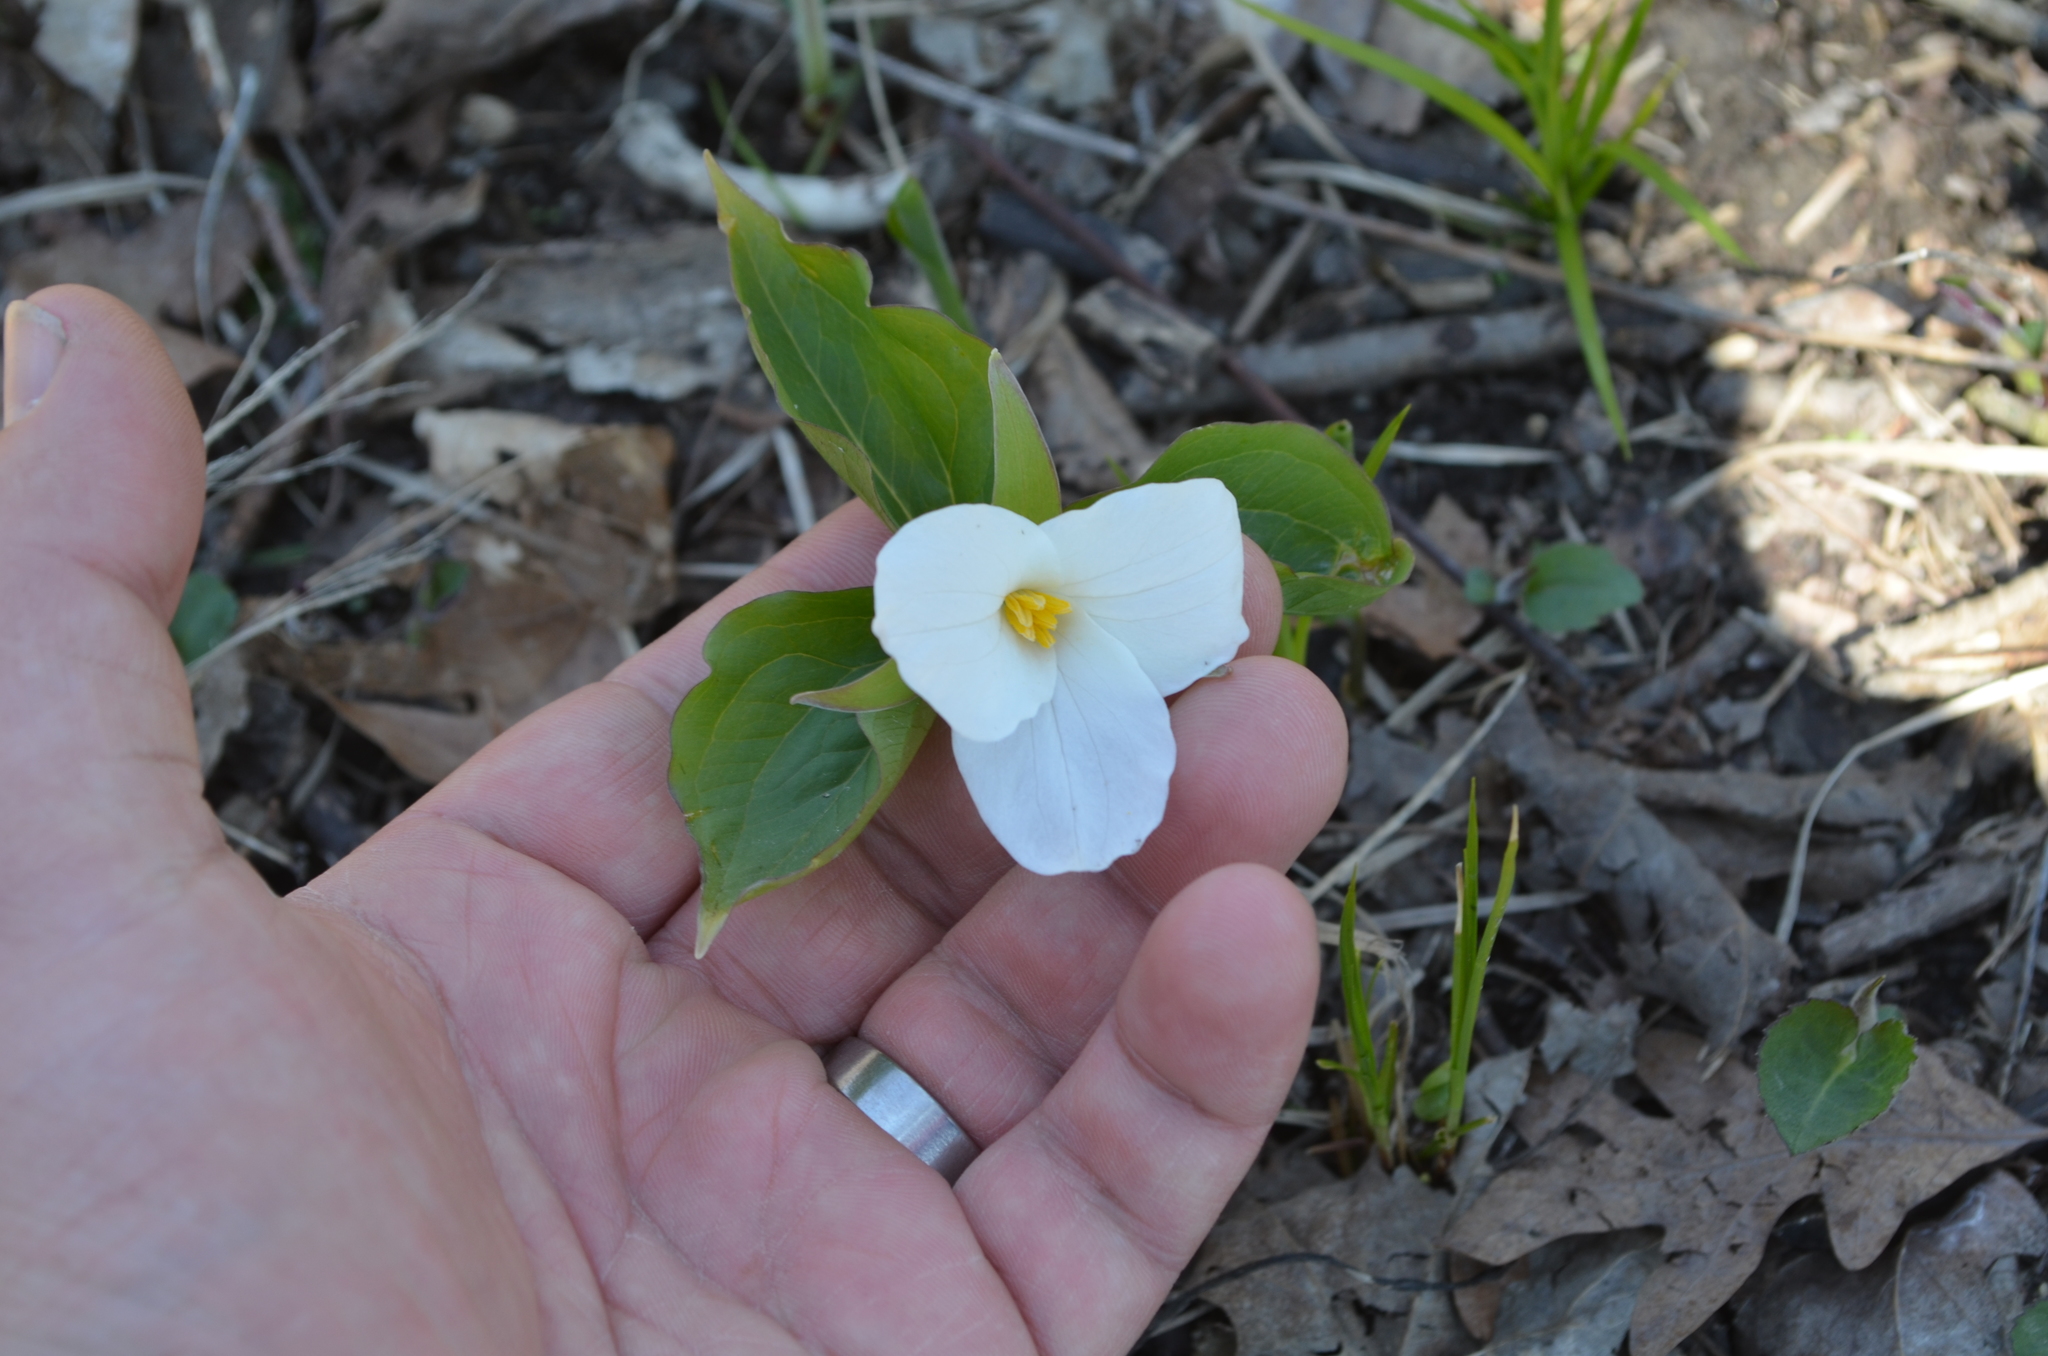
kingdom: Plantae
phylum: Tracheophyta
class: Liliopsida
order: Liliales
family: Melanthiaceae
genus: Trillium
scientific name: Trillium grandiflorum
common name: Great white trillium
